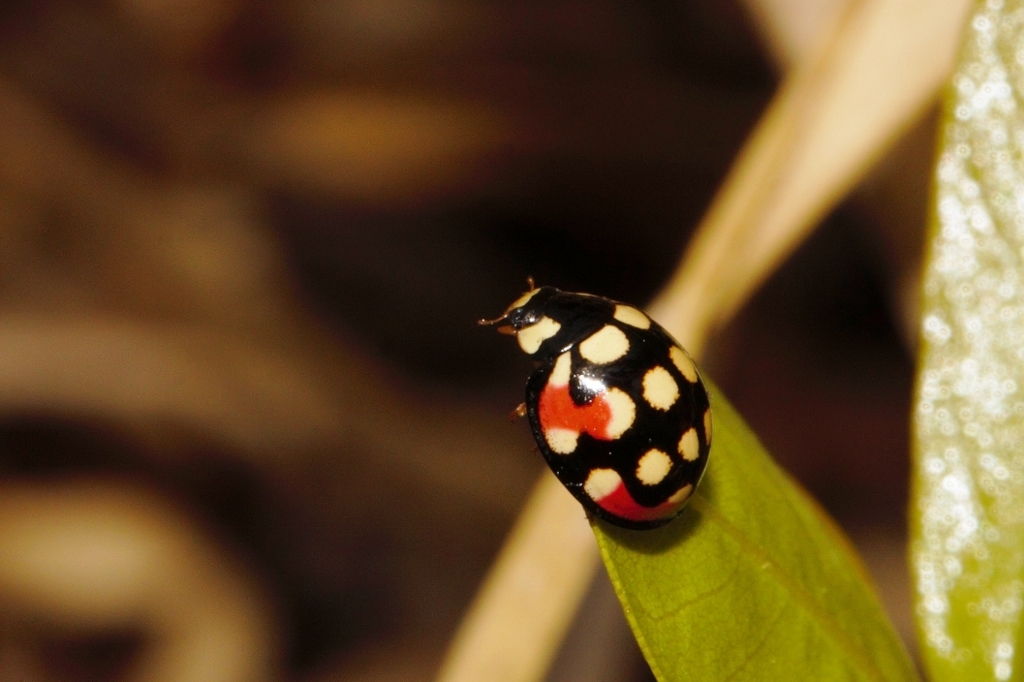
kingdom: Animalia
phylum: Arthropoda
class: Insecta
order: Coleoptera
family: Coccinellidae
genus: Cheilomenes
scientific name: Cheilomenes sulphurea
